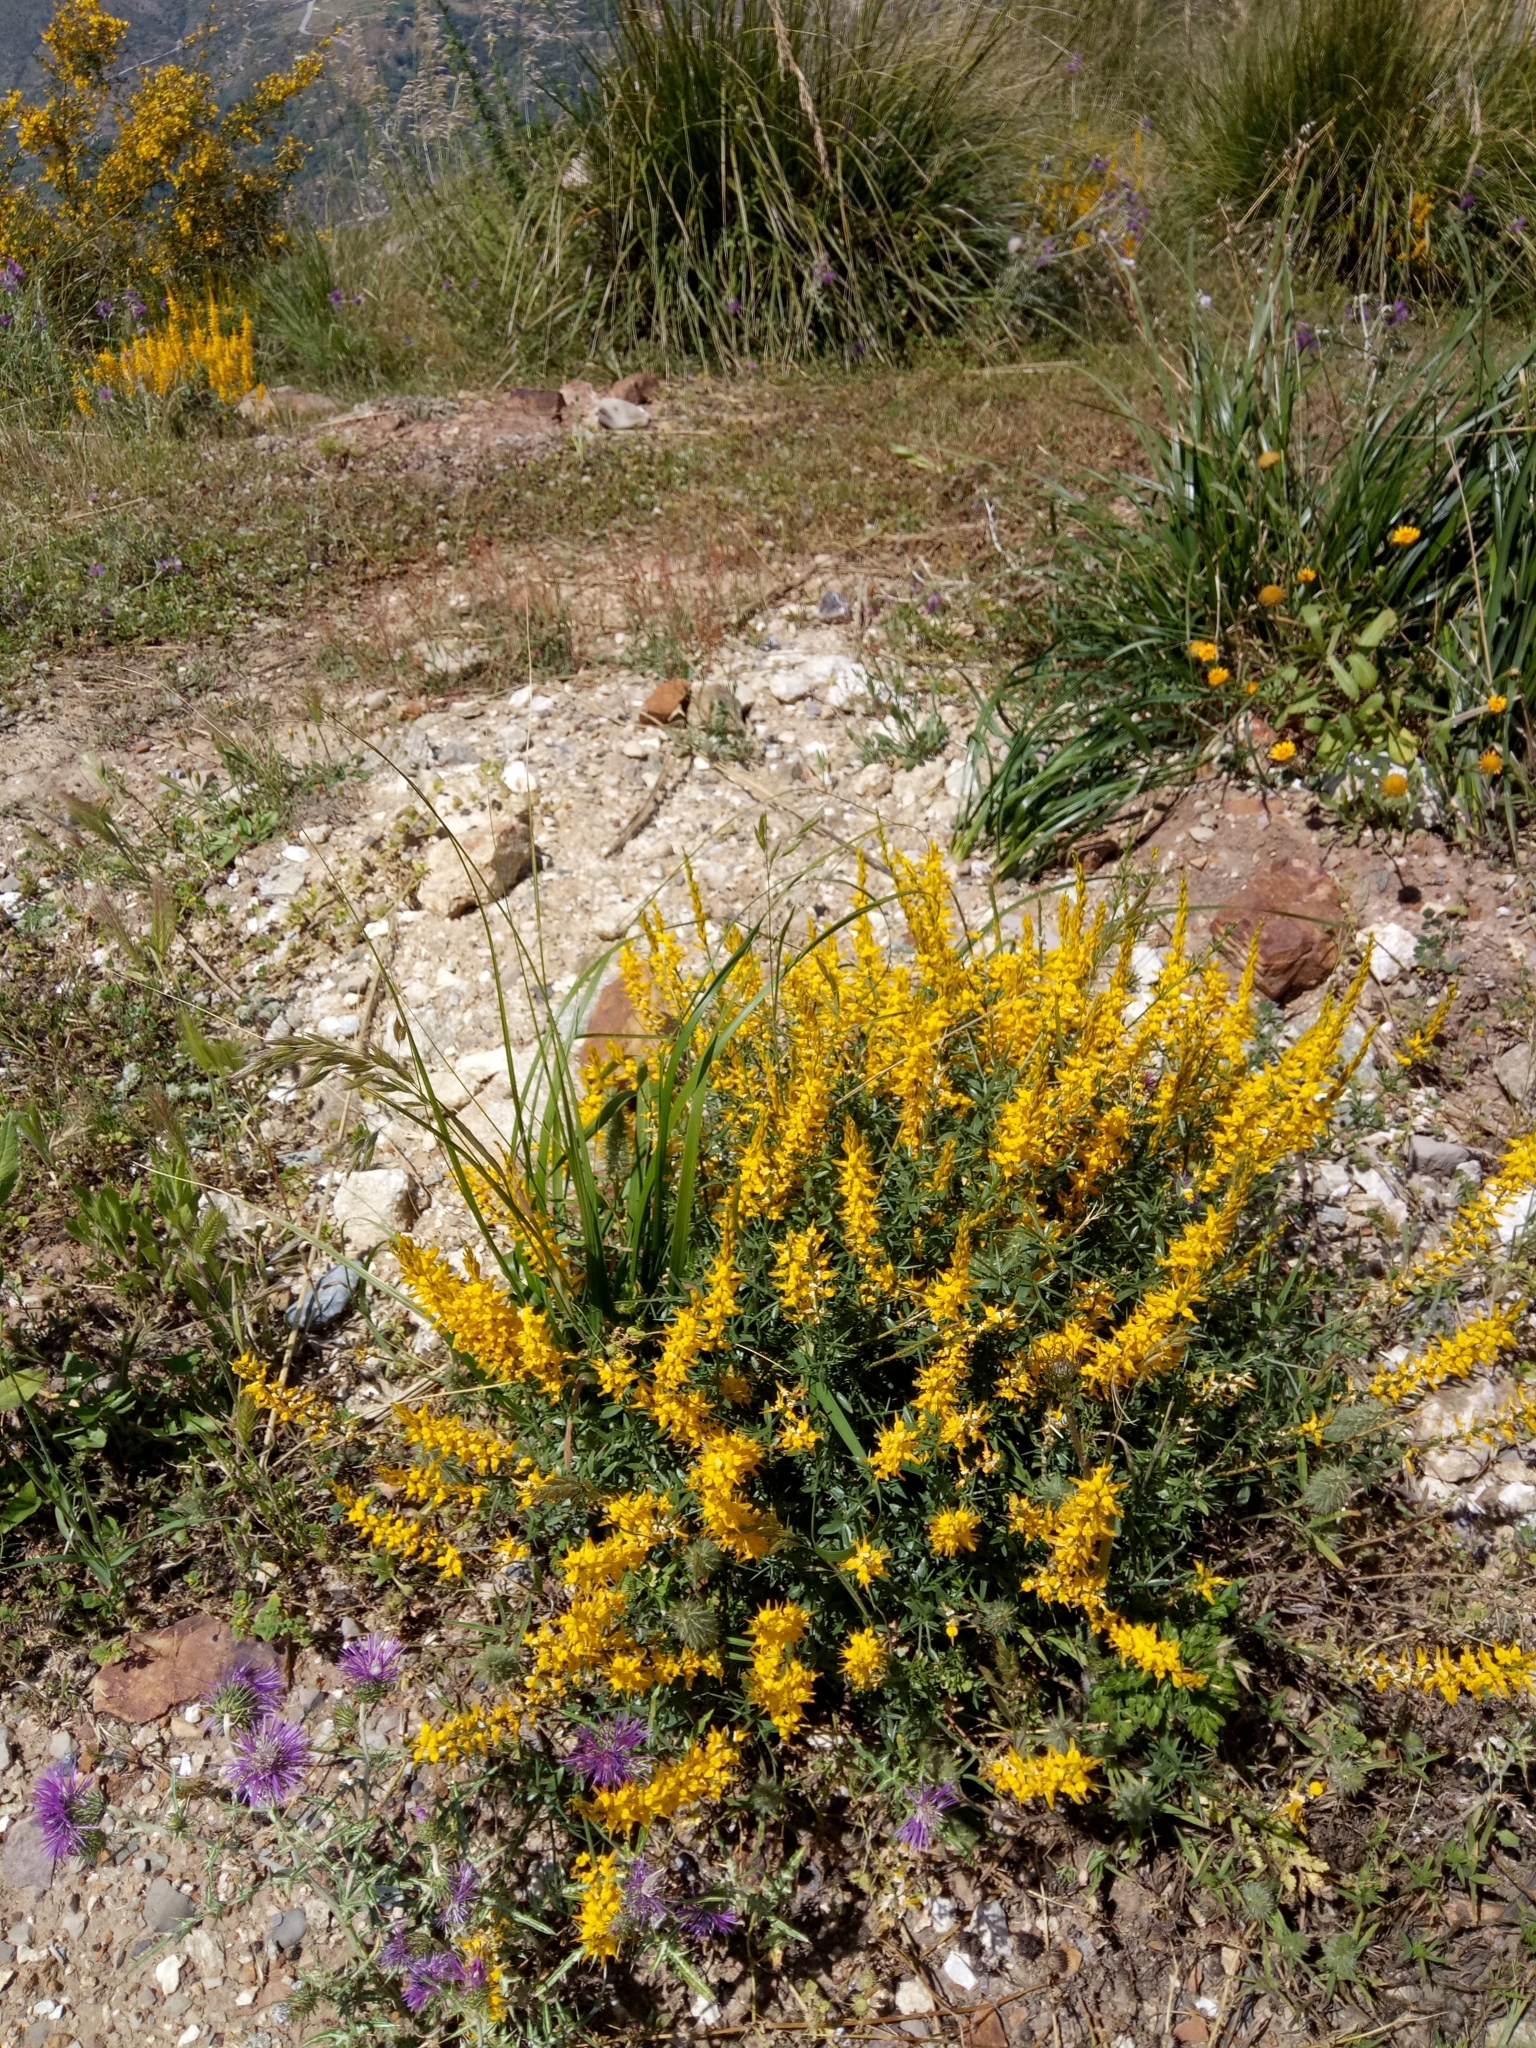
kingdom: Plantae
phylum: Tracheophyta
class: Magnoliopsida
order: Fabales
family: Fabaceae
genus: Genista
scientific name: Genista tricuspidata
